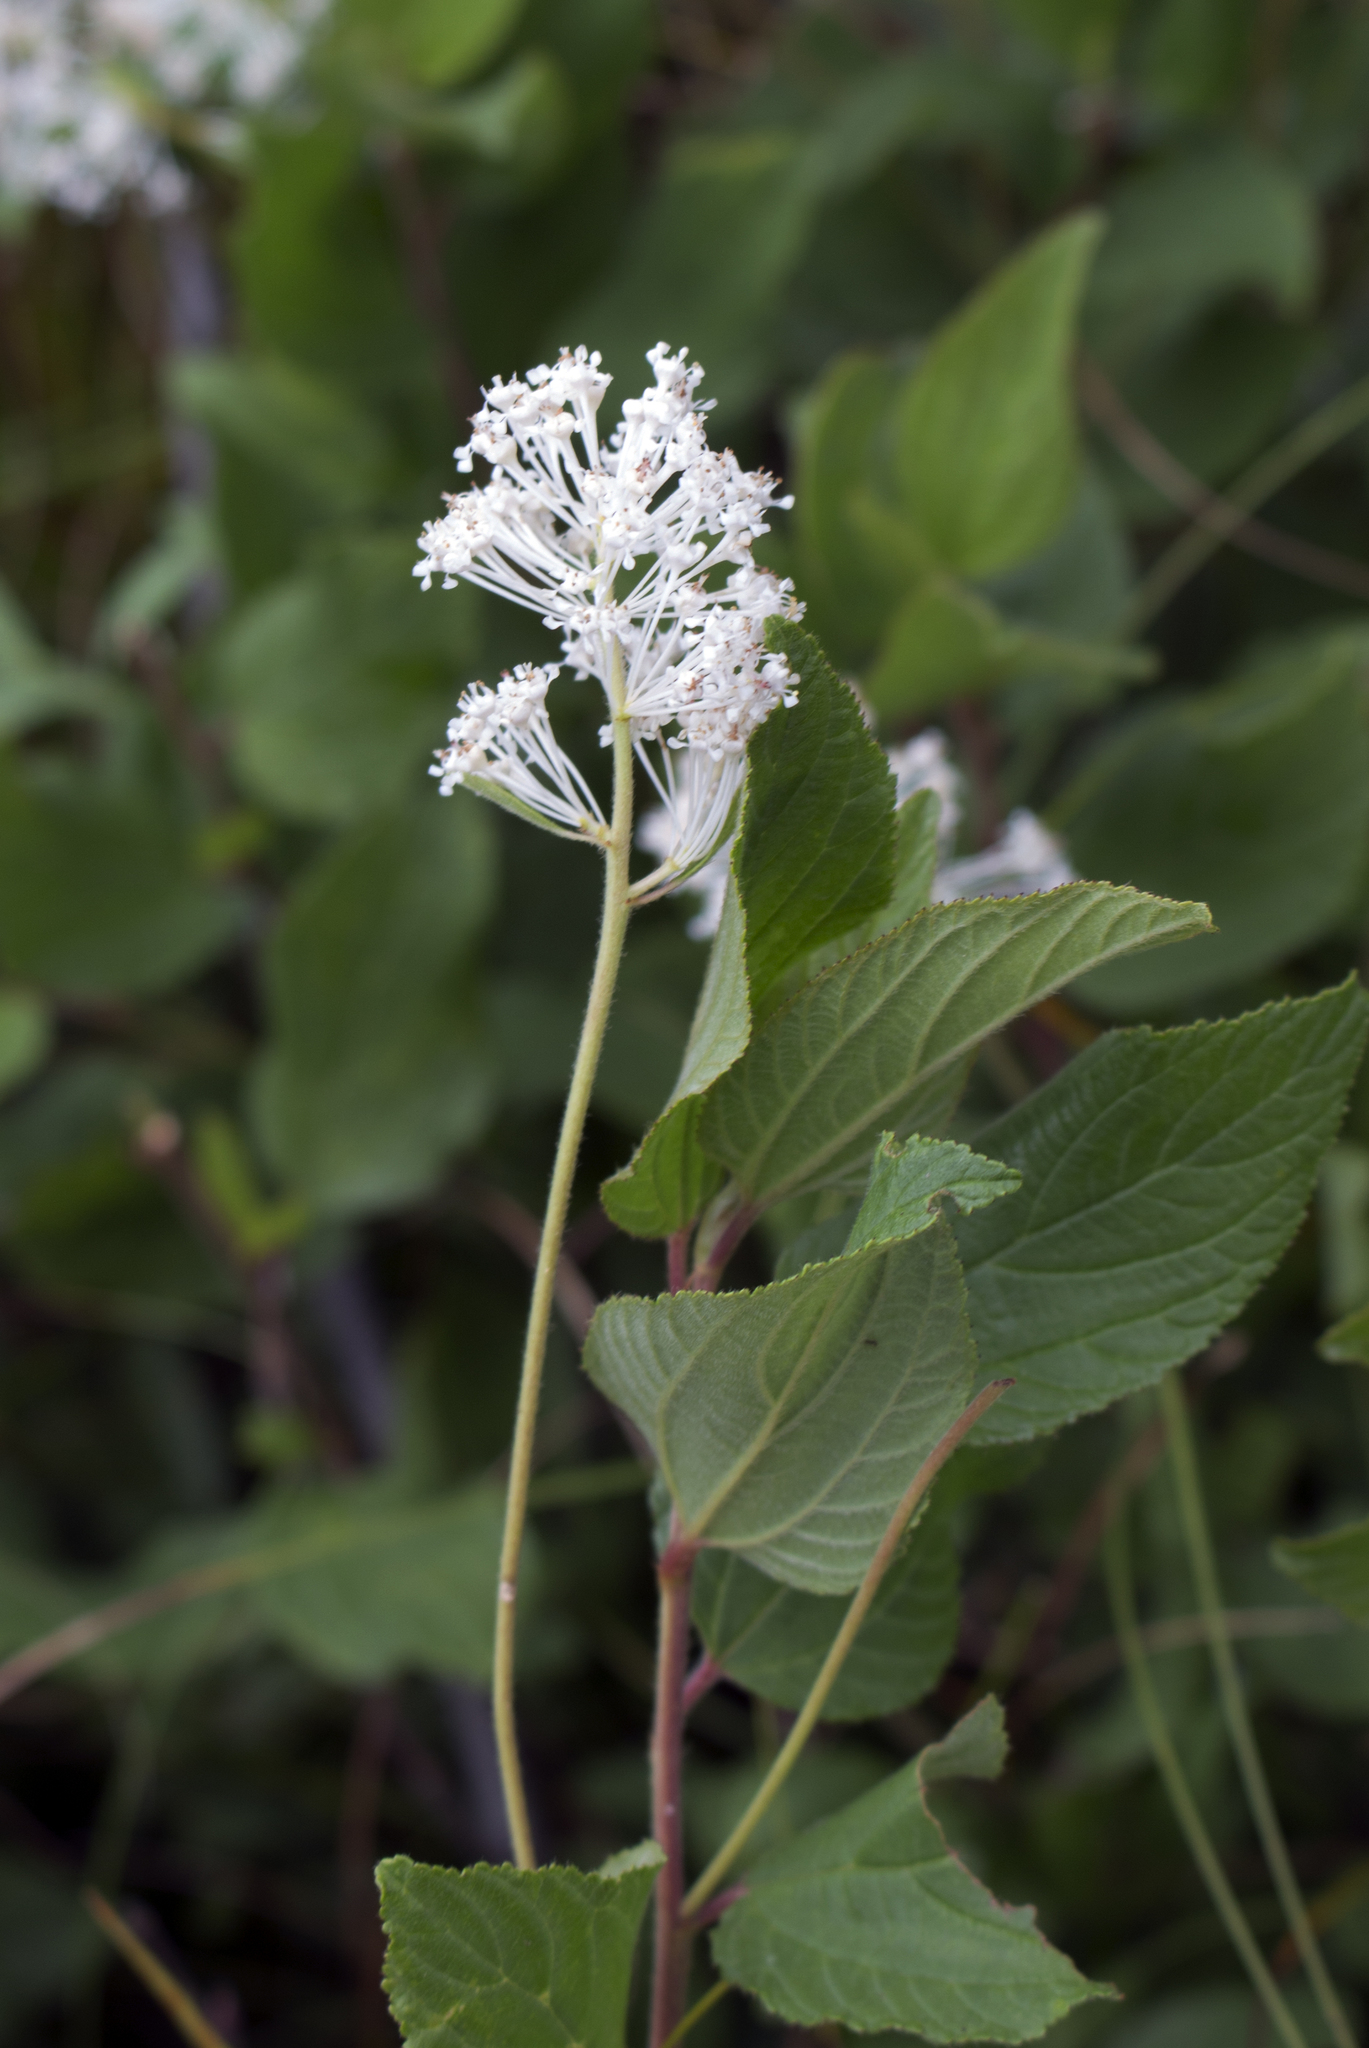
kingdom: Plantae
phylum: Tracheophyta
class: Magnoliopsida
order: Rosales
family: Rhamnaceae
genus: Ceanothus
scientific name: Ceanothus americanus
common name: Redroot
